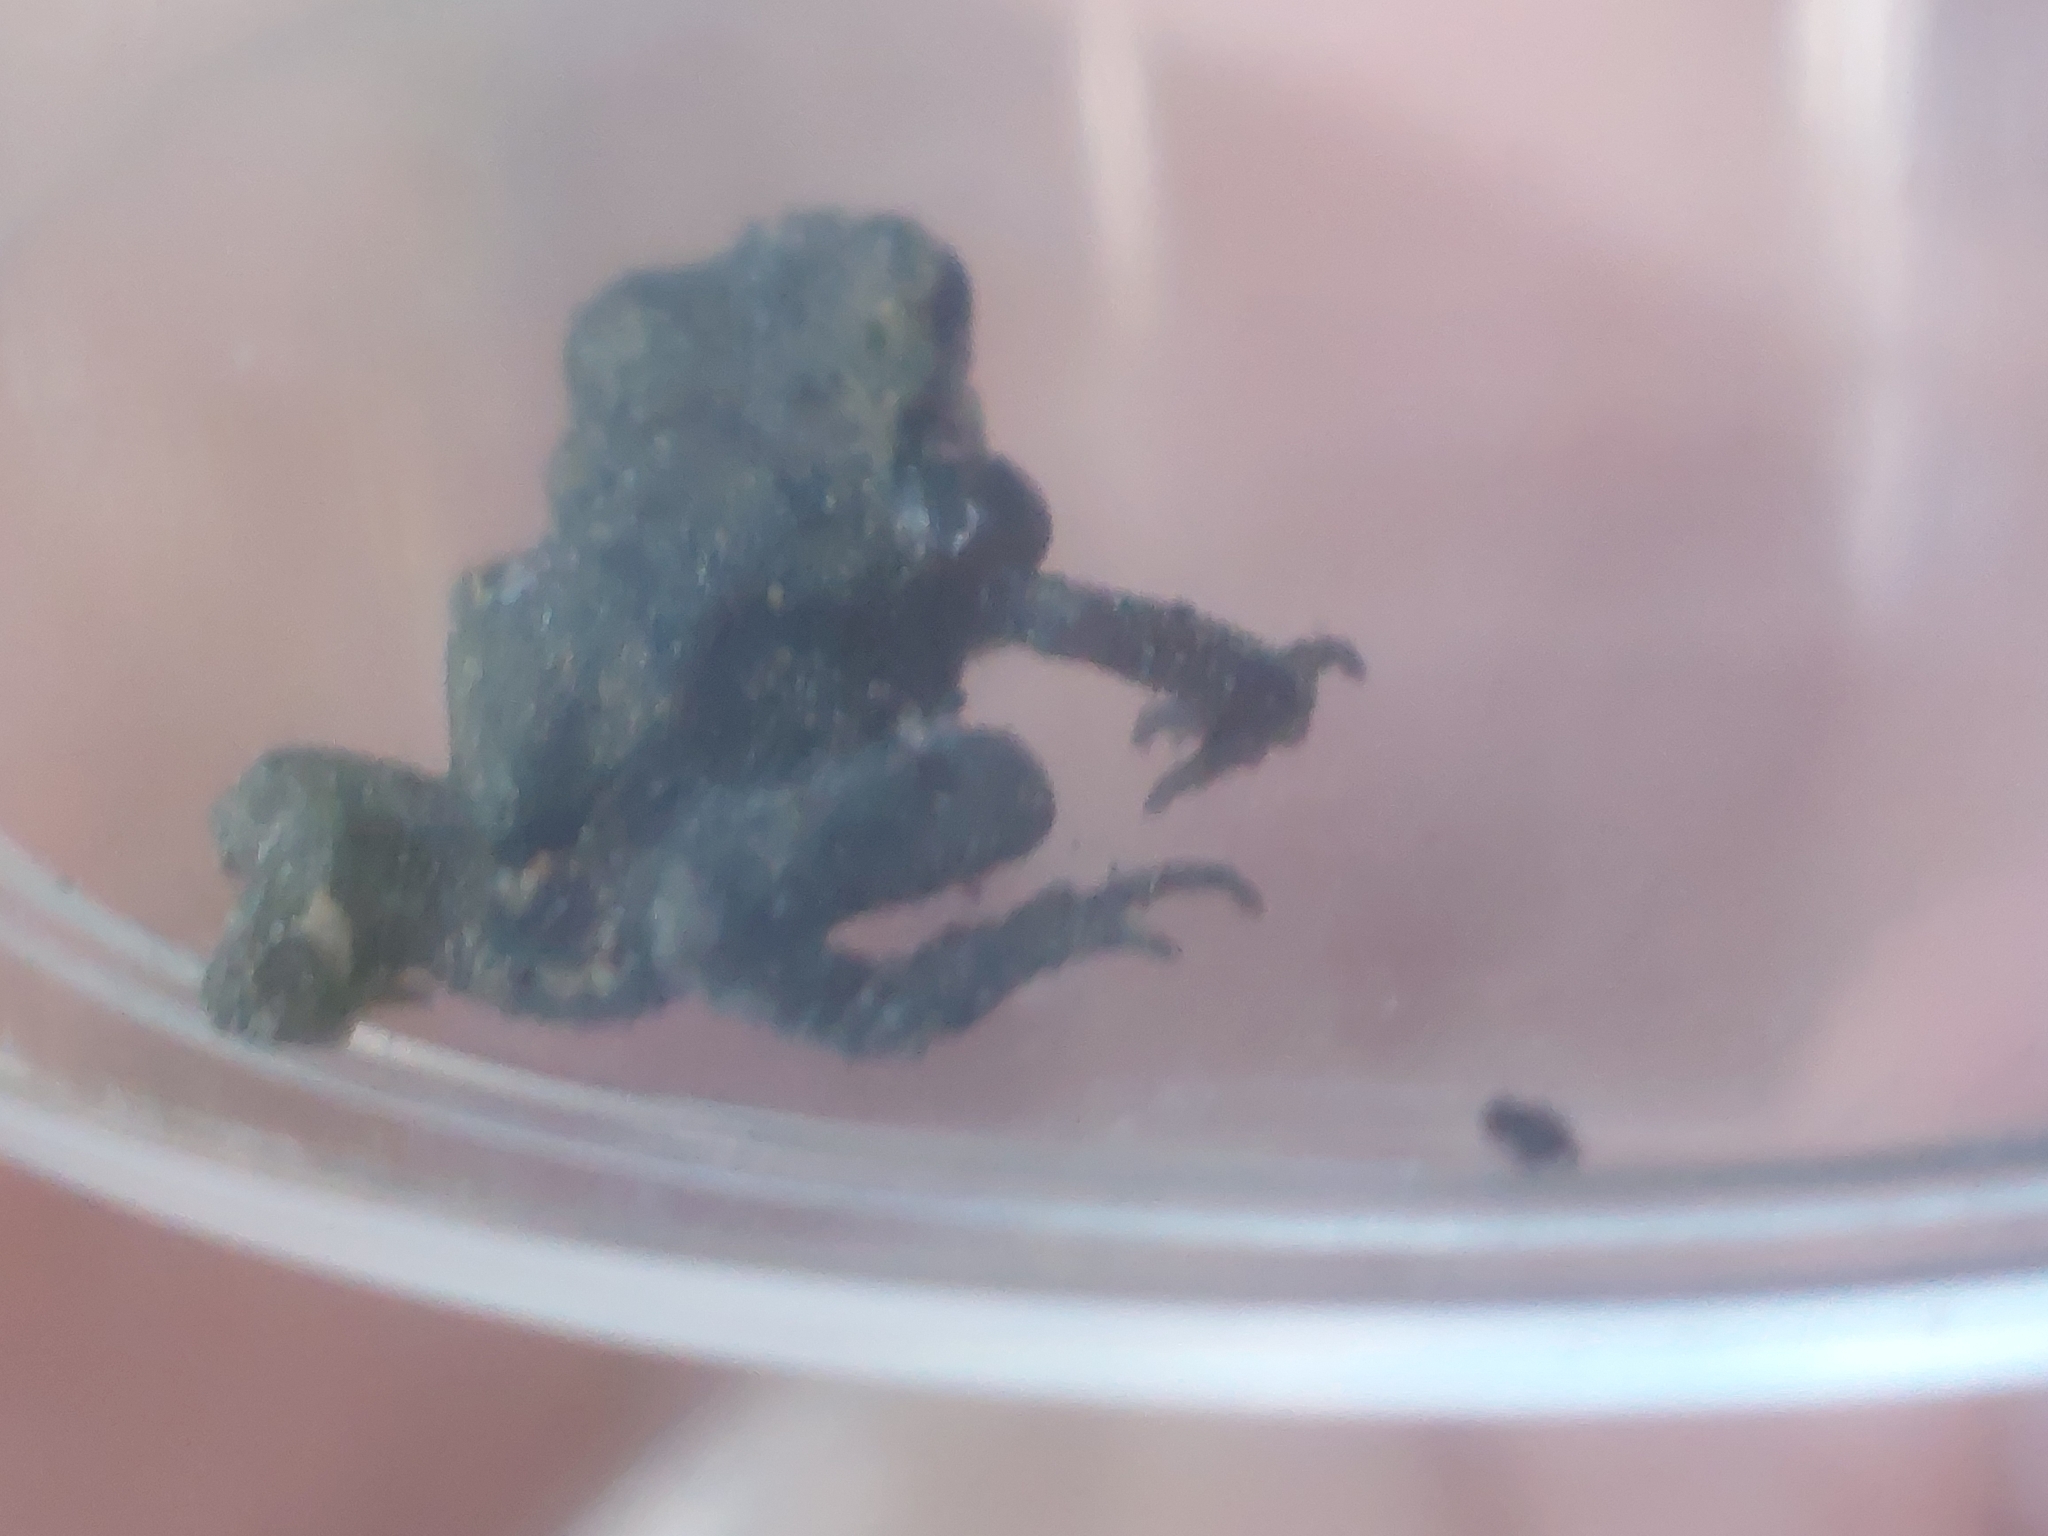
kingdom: Animalia
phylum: Chordata
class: Amphibia
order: Anura
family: Bufonidae
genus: Bufo
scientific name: Bufo bufo
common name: Common toad
